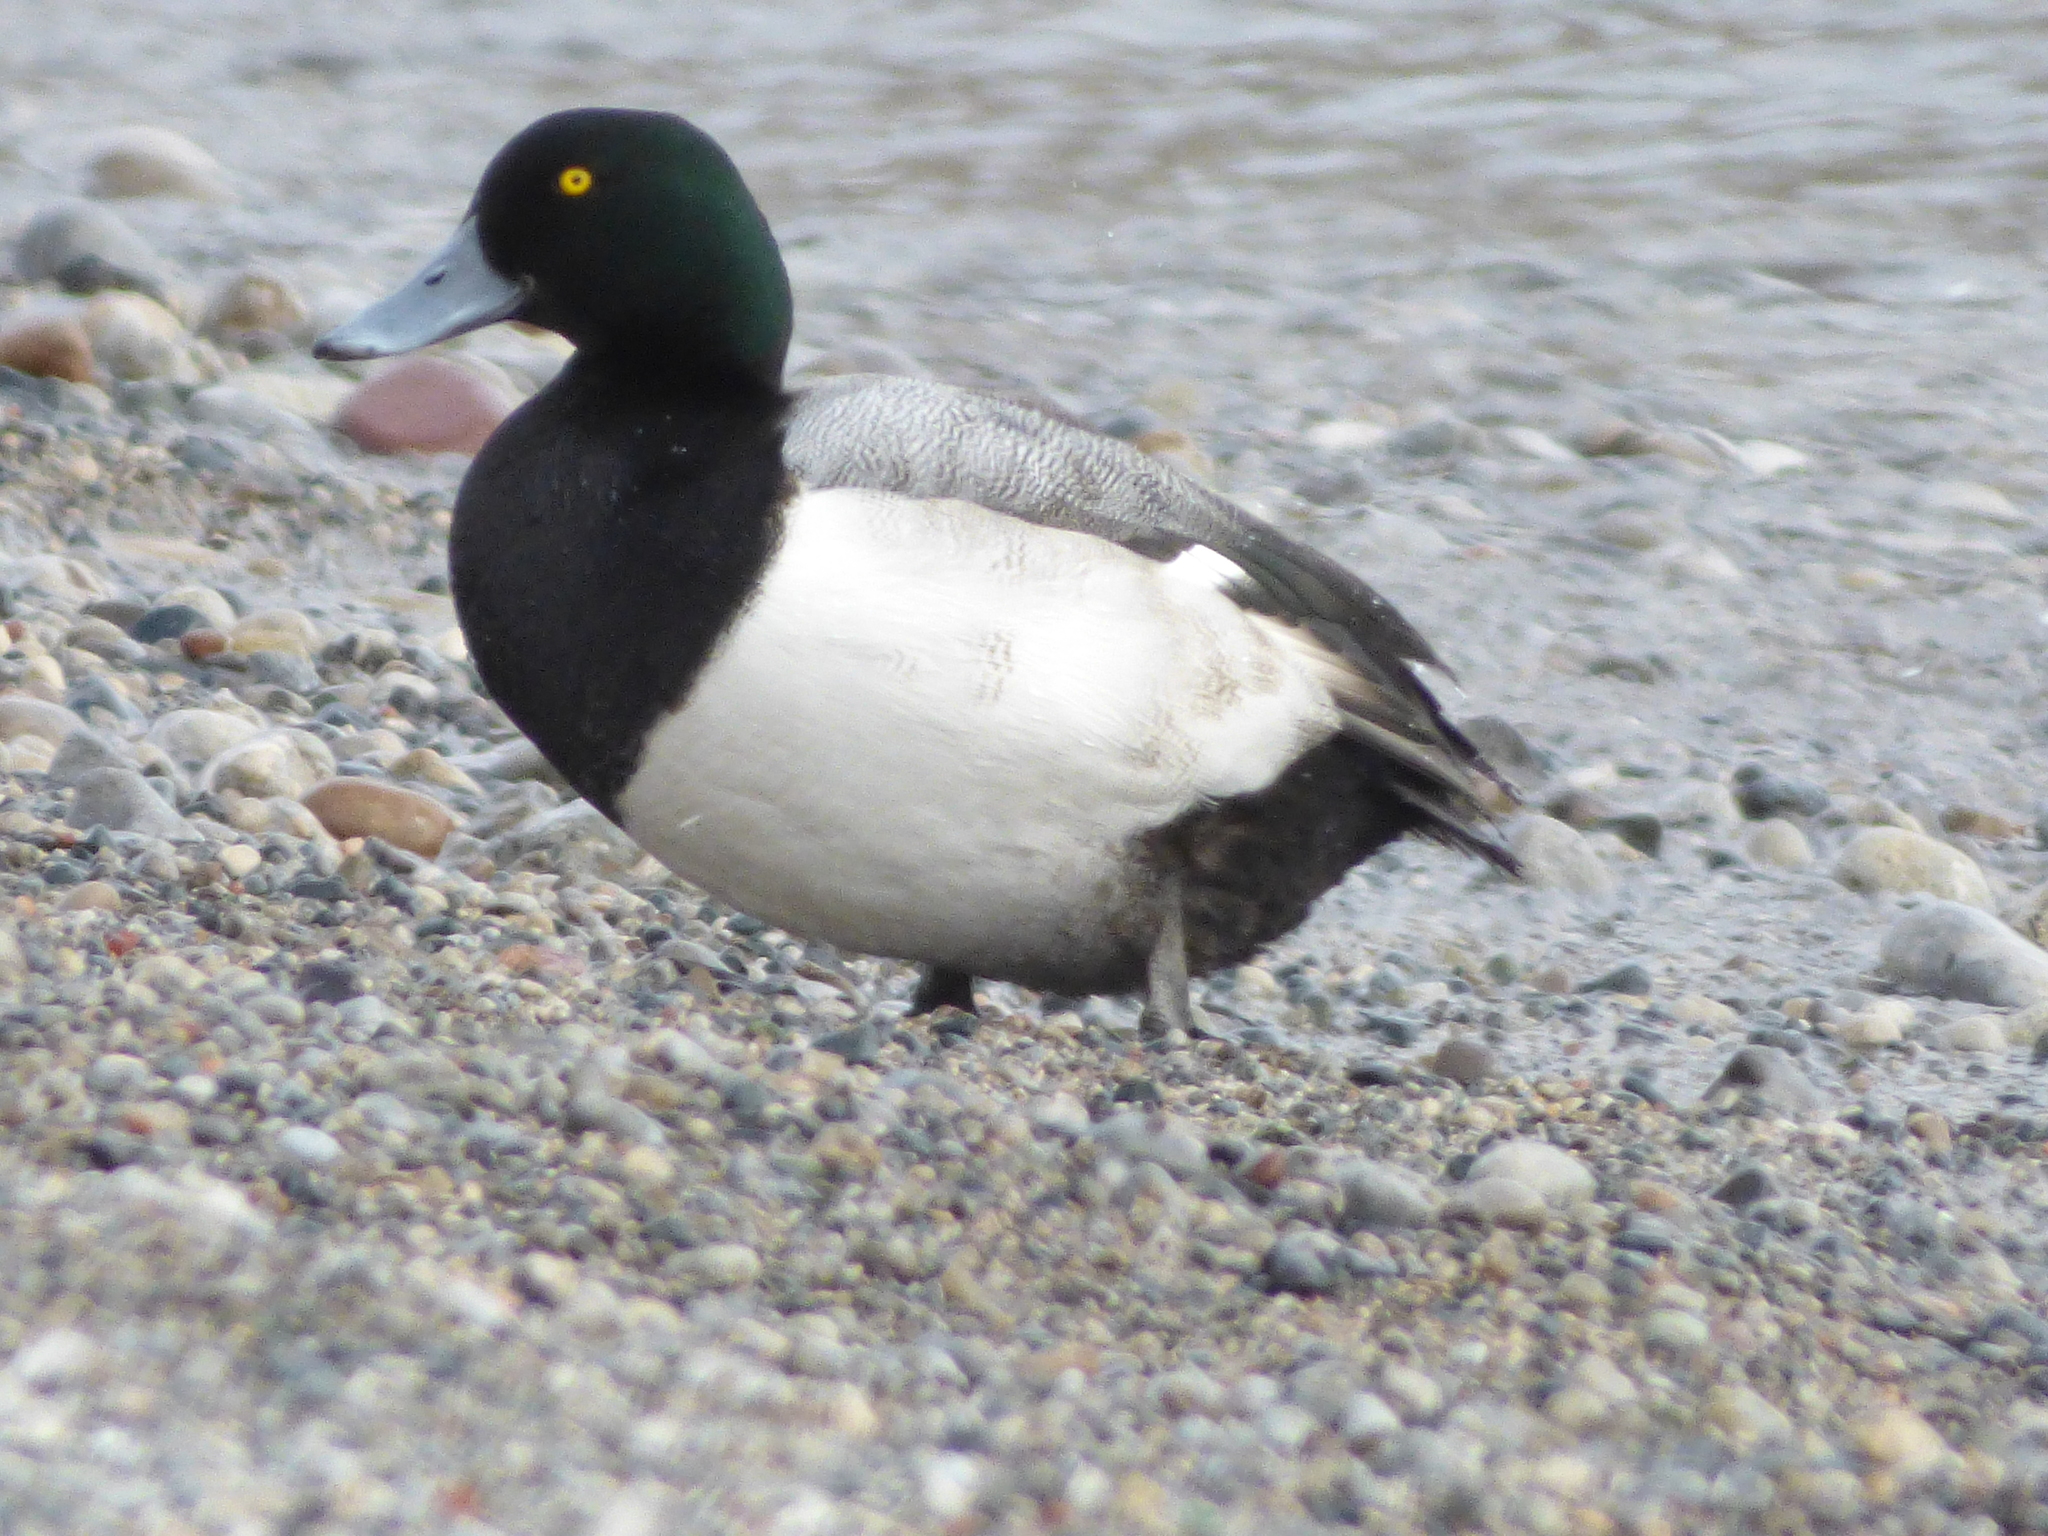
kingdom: Animalia
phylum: Chordata
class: Aves
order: Anseriformes
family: Anatidae
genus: Aythya
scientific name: Aythya marila
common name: Greater scaup
